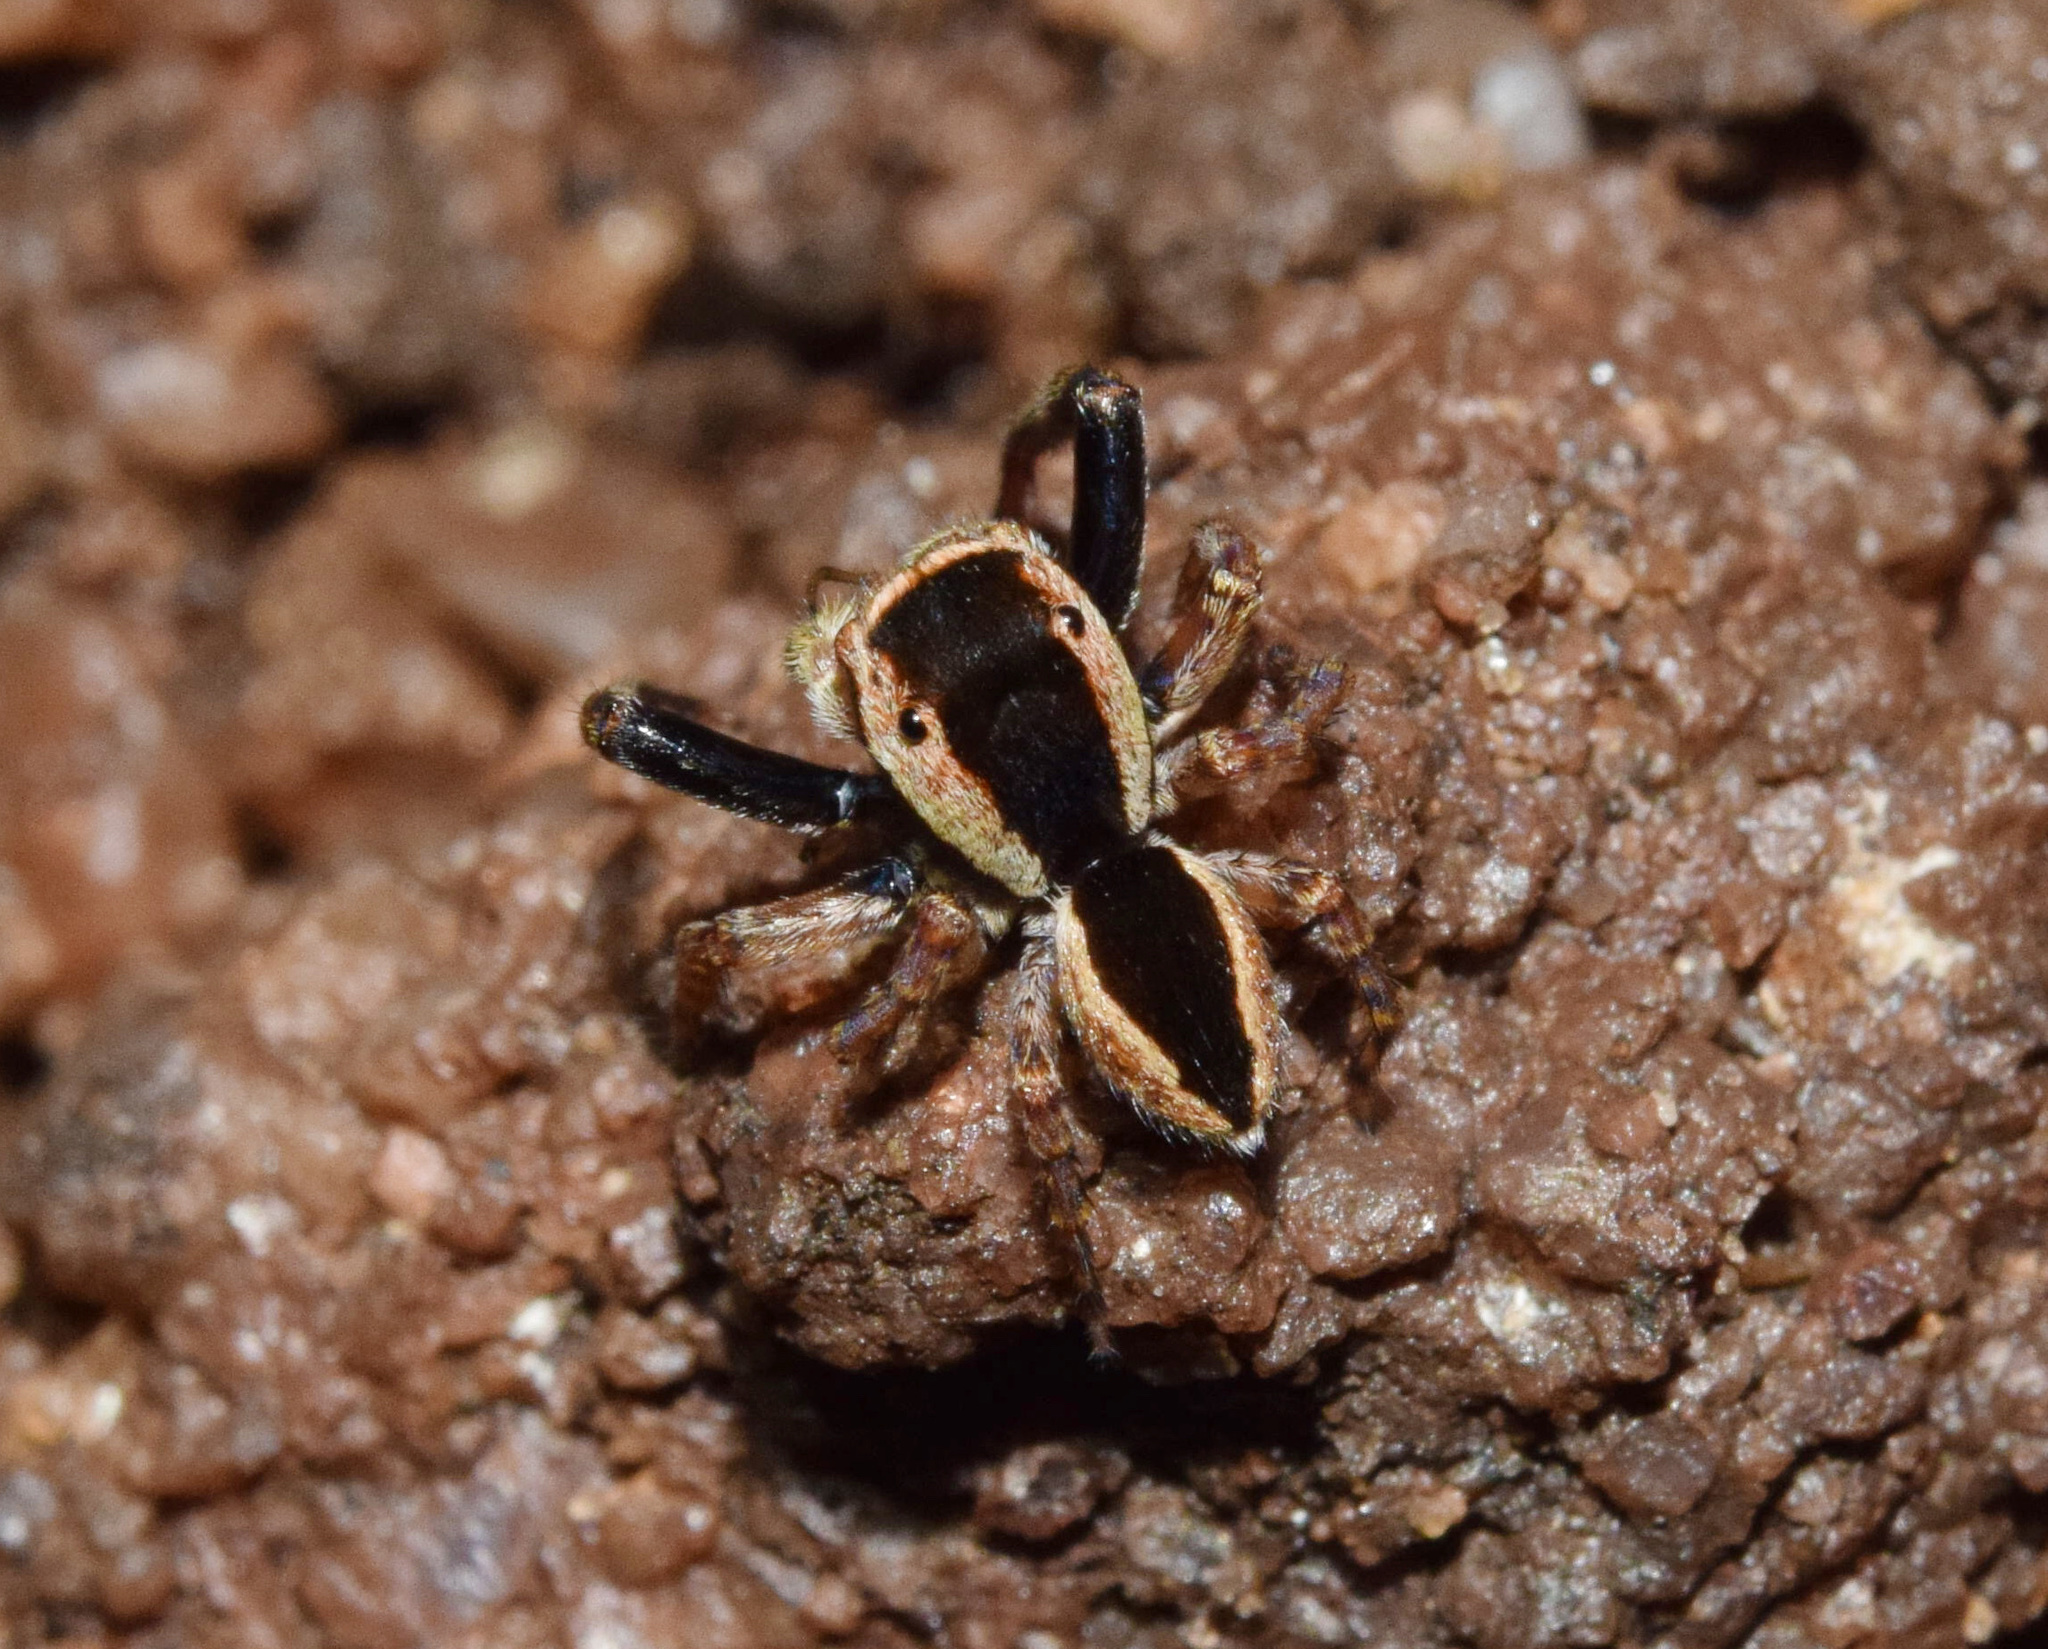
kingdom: Animalia
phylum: Arthropoda
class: Arachnida
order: Araneae
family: Salticidae
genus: Thyenula
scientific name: Thyenula leighi
